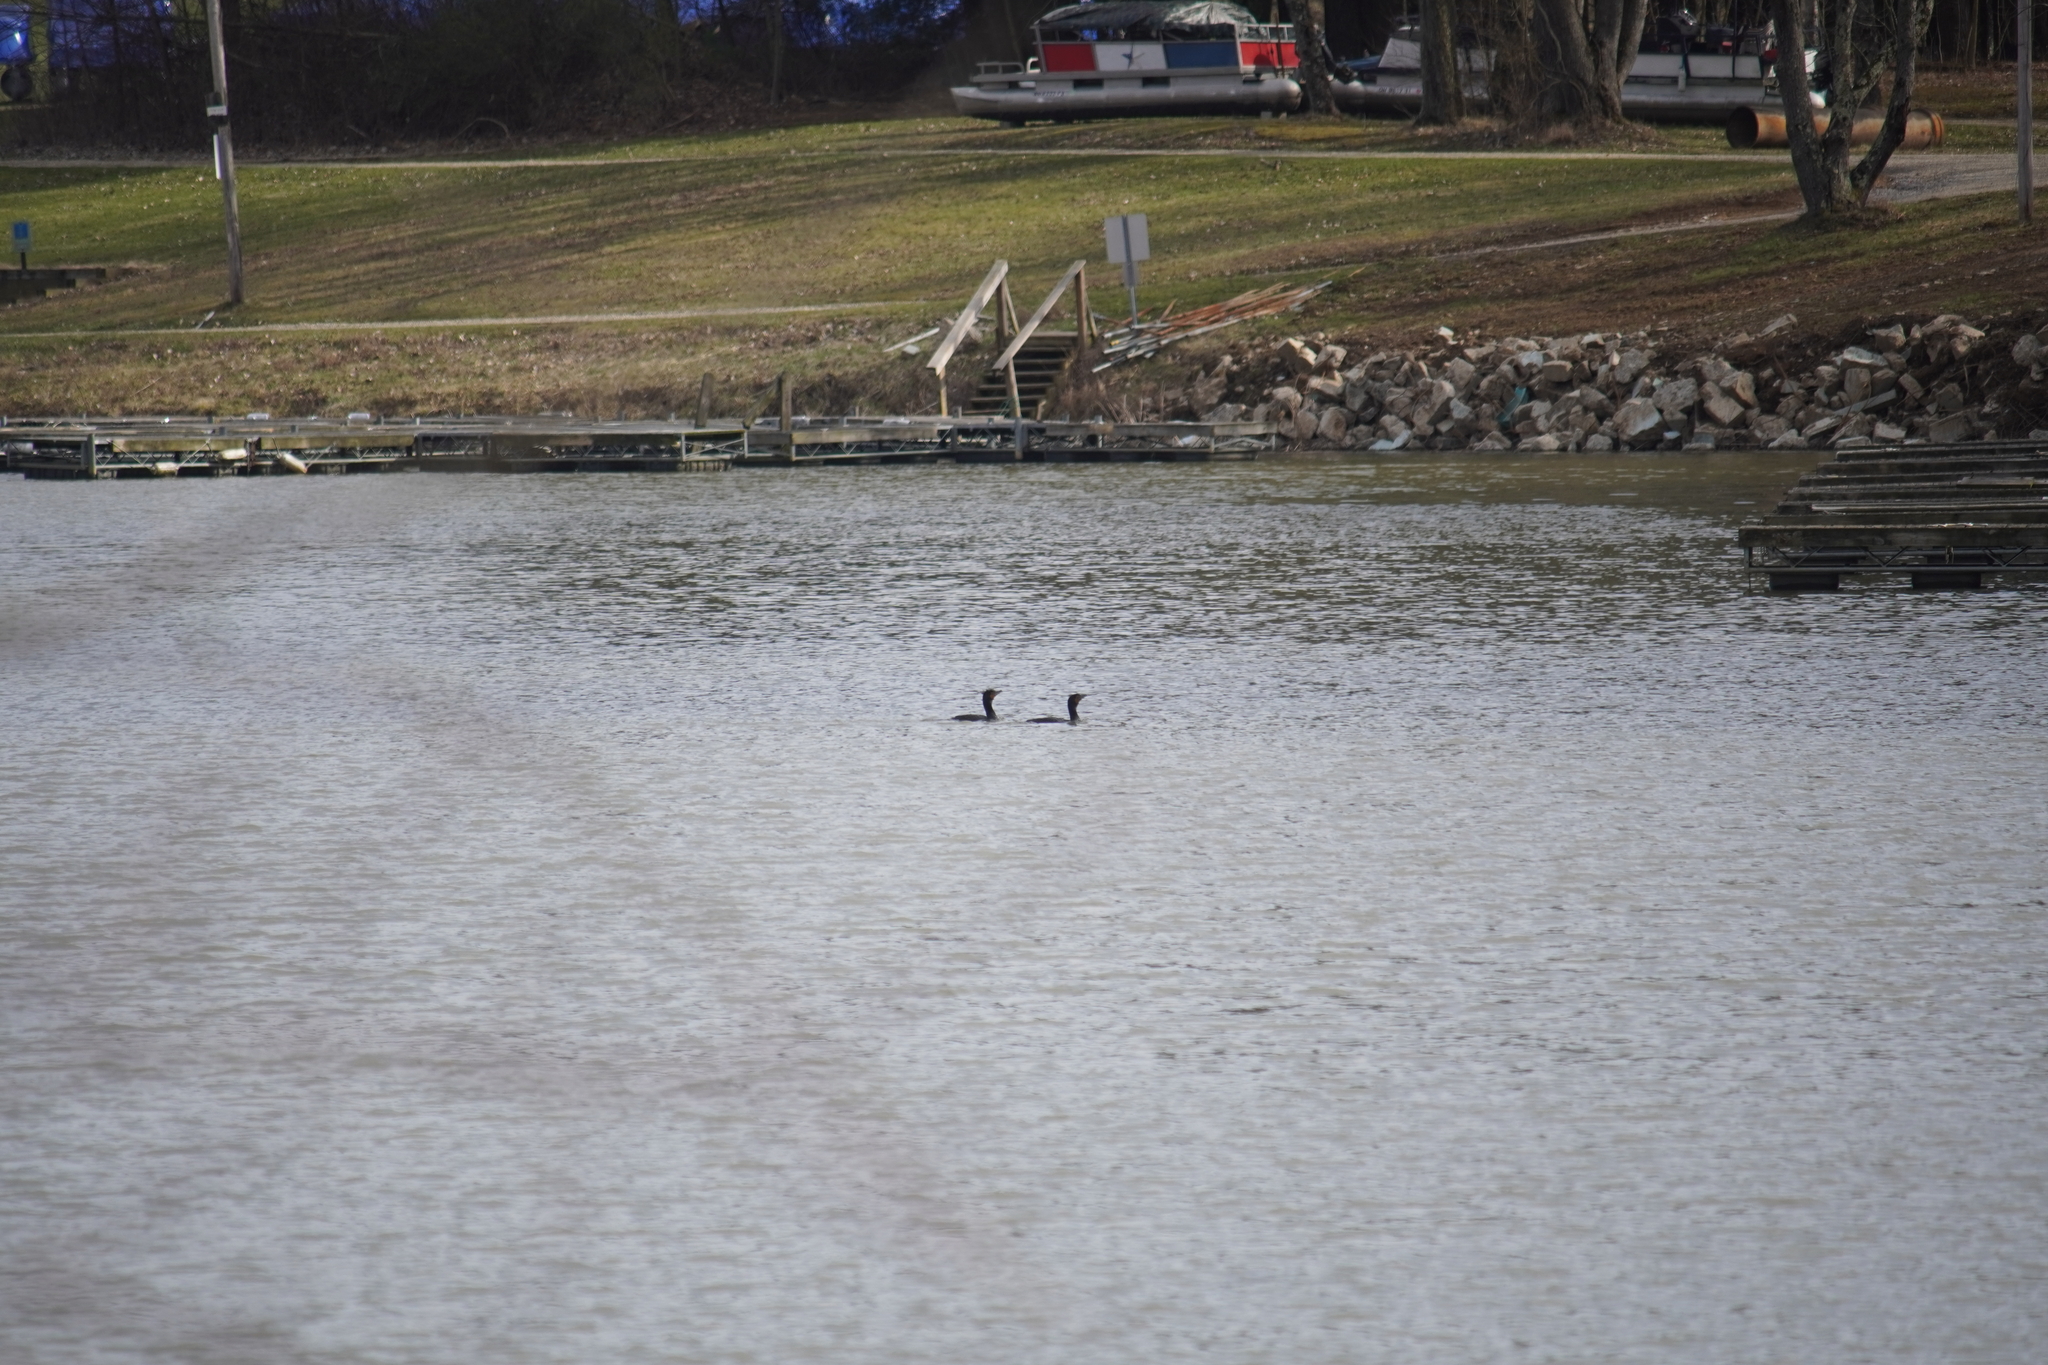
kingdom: Animalia
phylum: Chordata
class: Aves
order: Suliformes
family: Phalacrocoracidae
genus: Phalacrocorax
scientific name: Phalacrocorax auritus
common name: Double-crested cormorant
